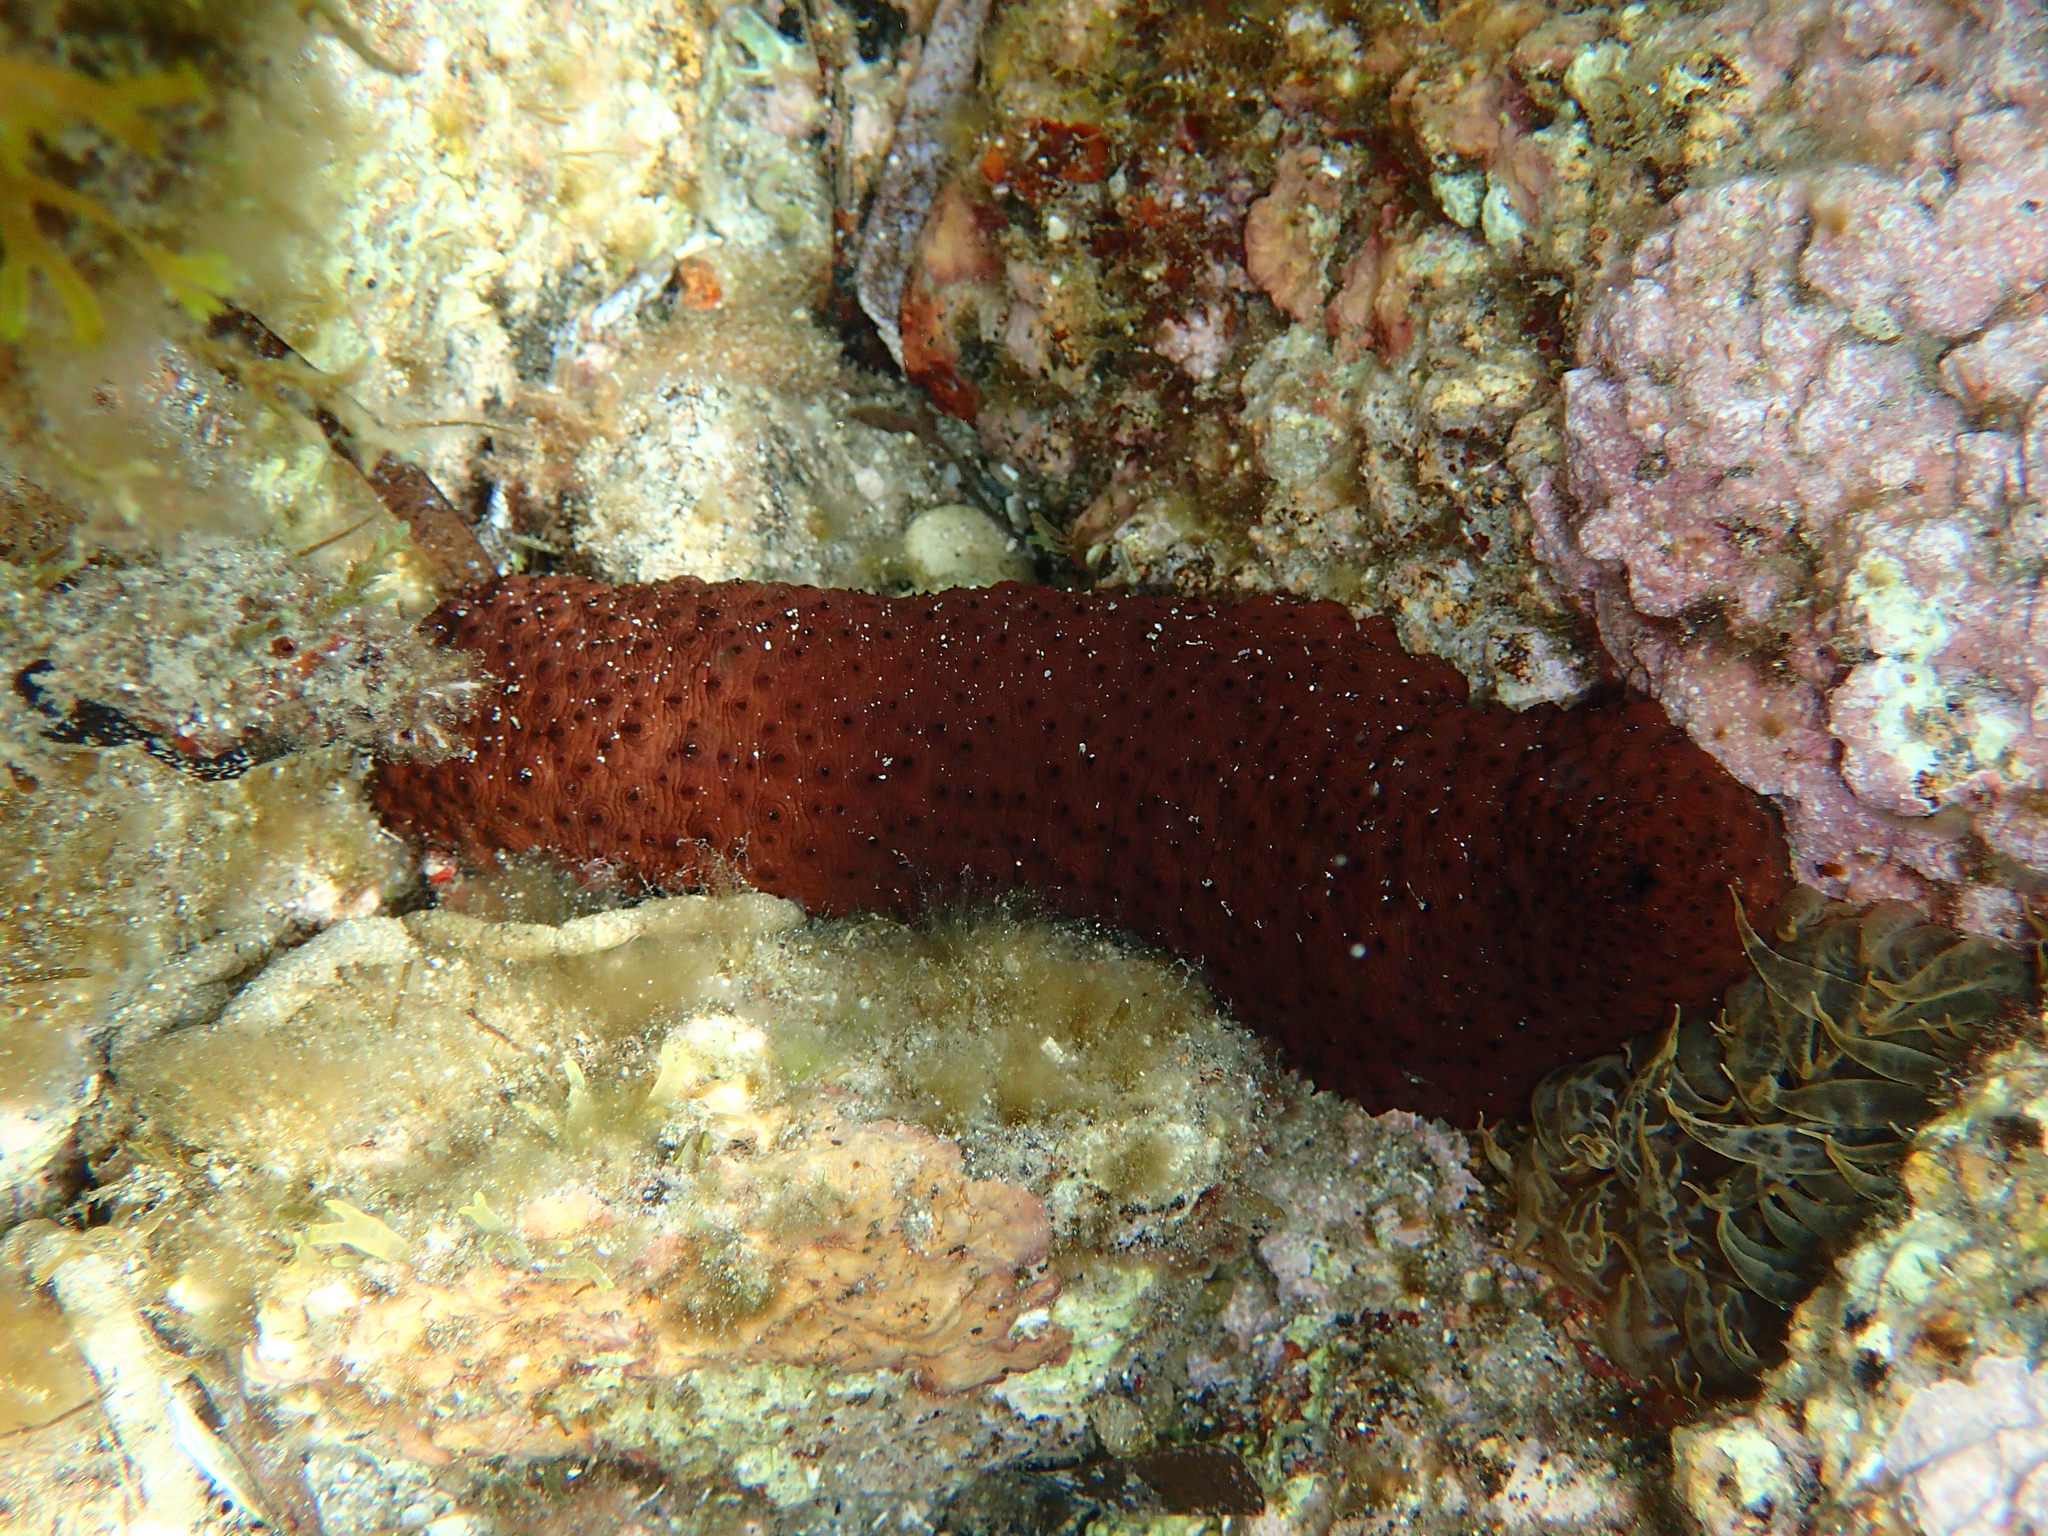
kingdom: Animalia
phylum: Echinodermata
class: Holothuroidea
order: Holothuriida
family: Holothuriidae
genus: Holothuria
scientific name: Holothuria sanctori
